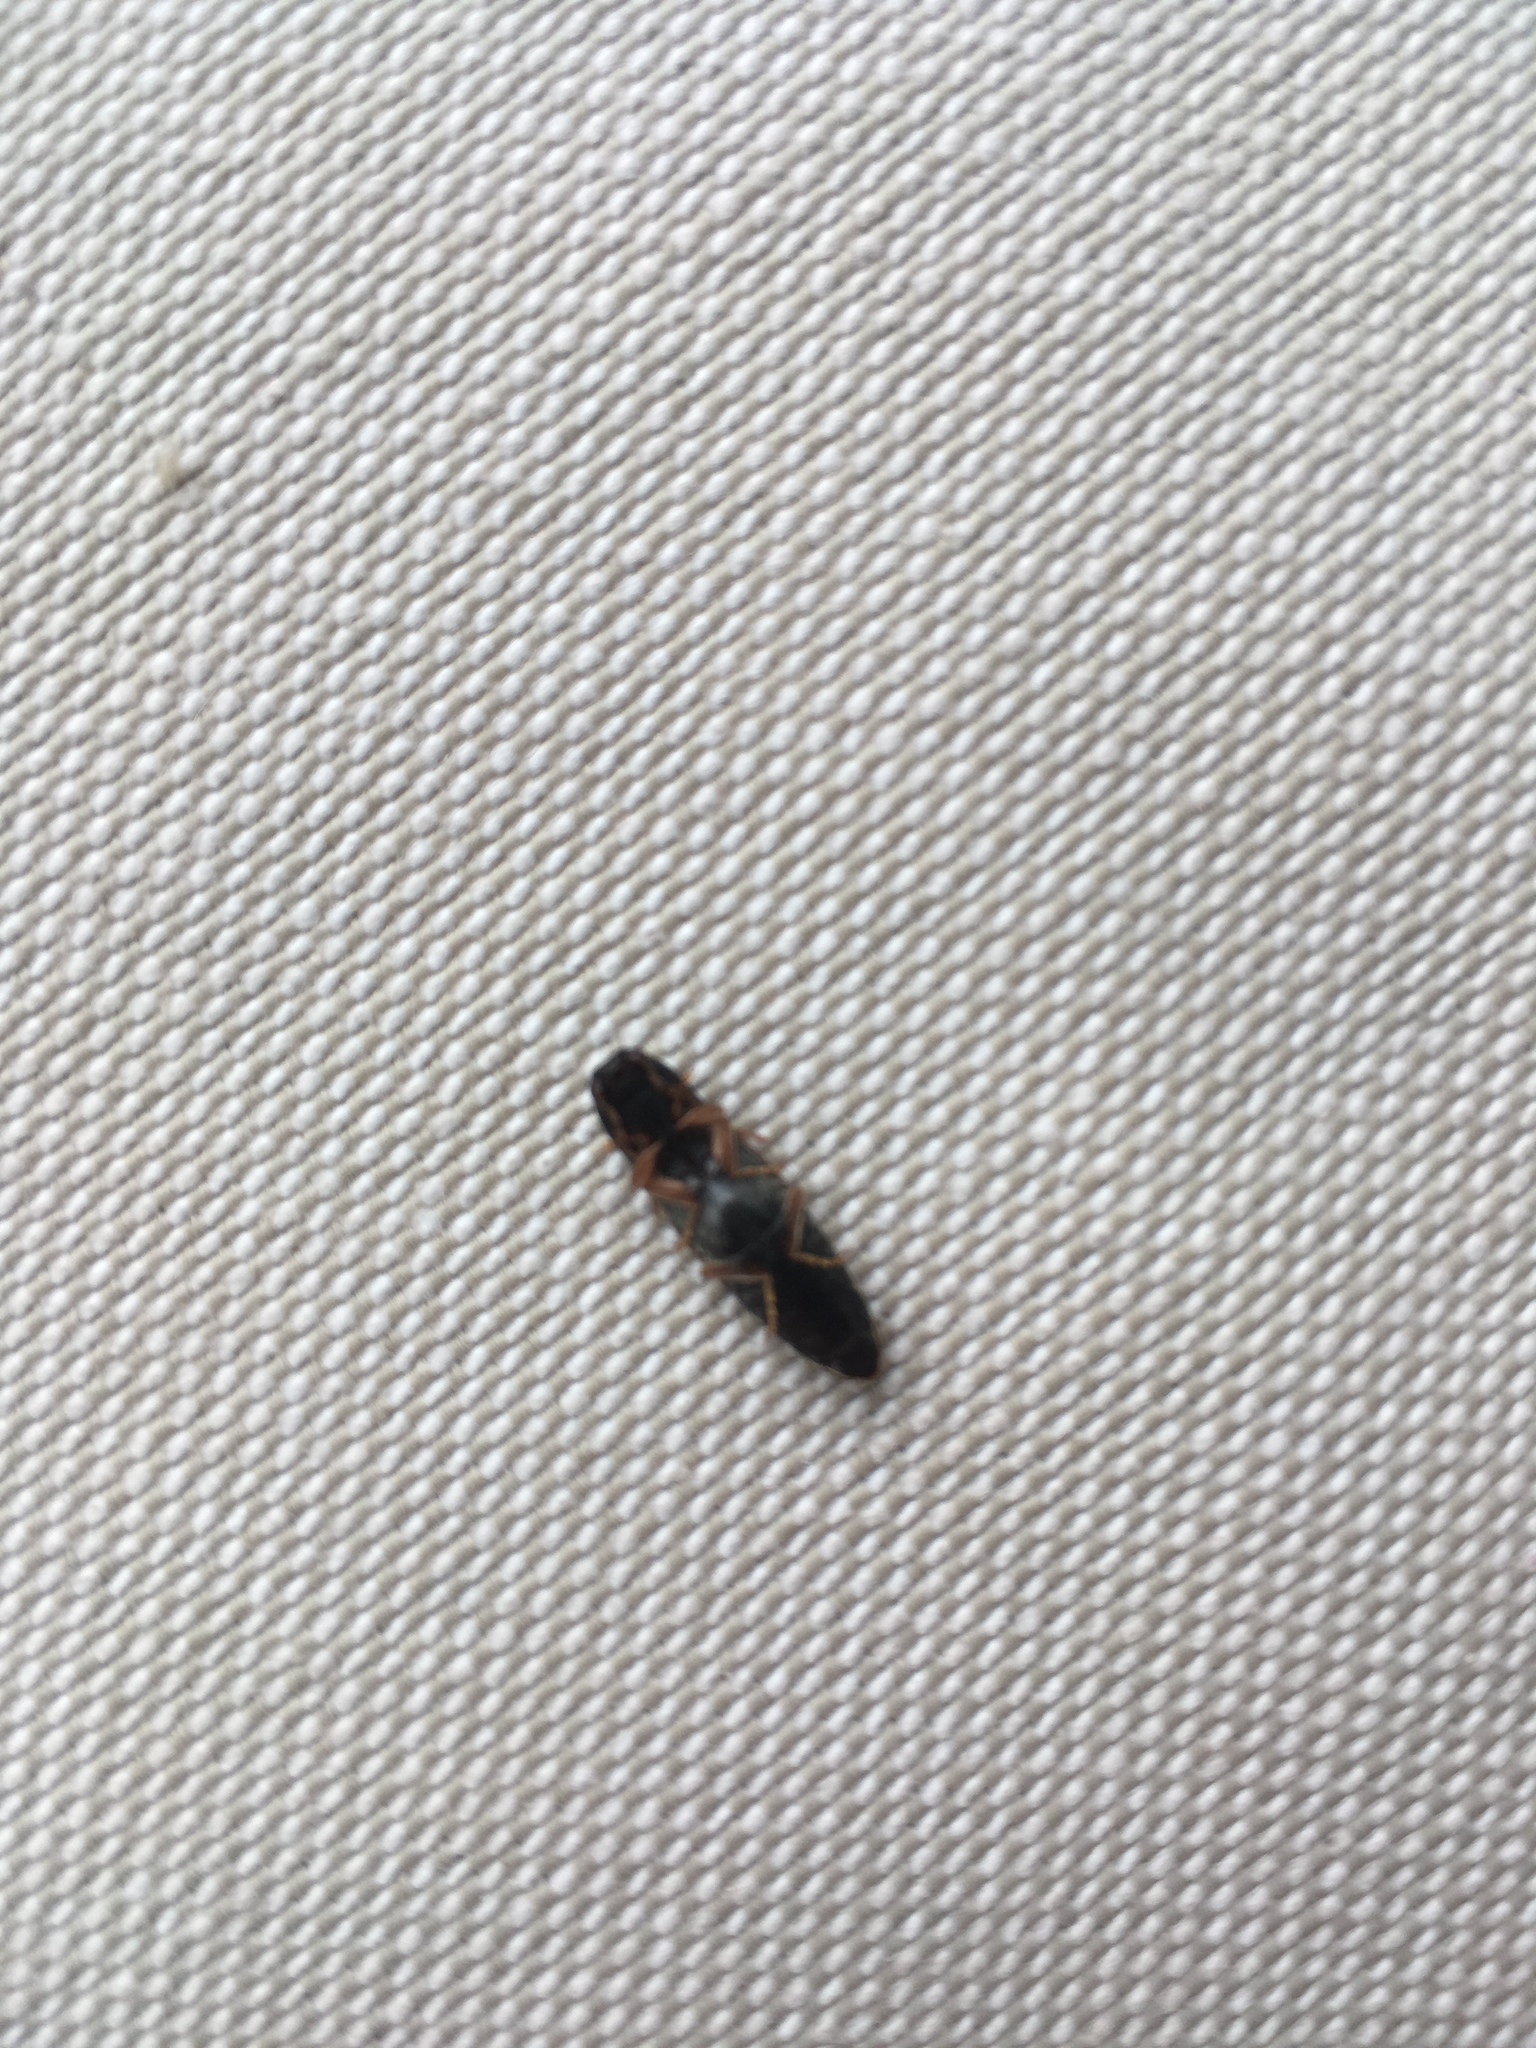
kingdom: Animalia
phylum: Arthropoda
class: Insecta
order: Coleoptera
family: Elateridae
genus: Monocrepidius
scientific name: Monocrepidius
